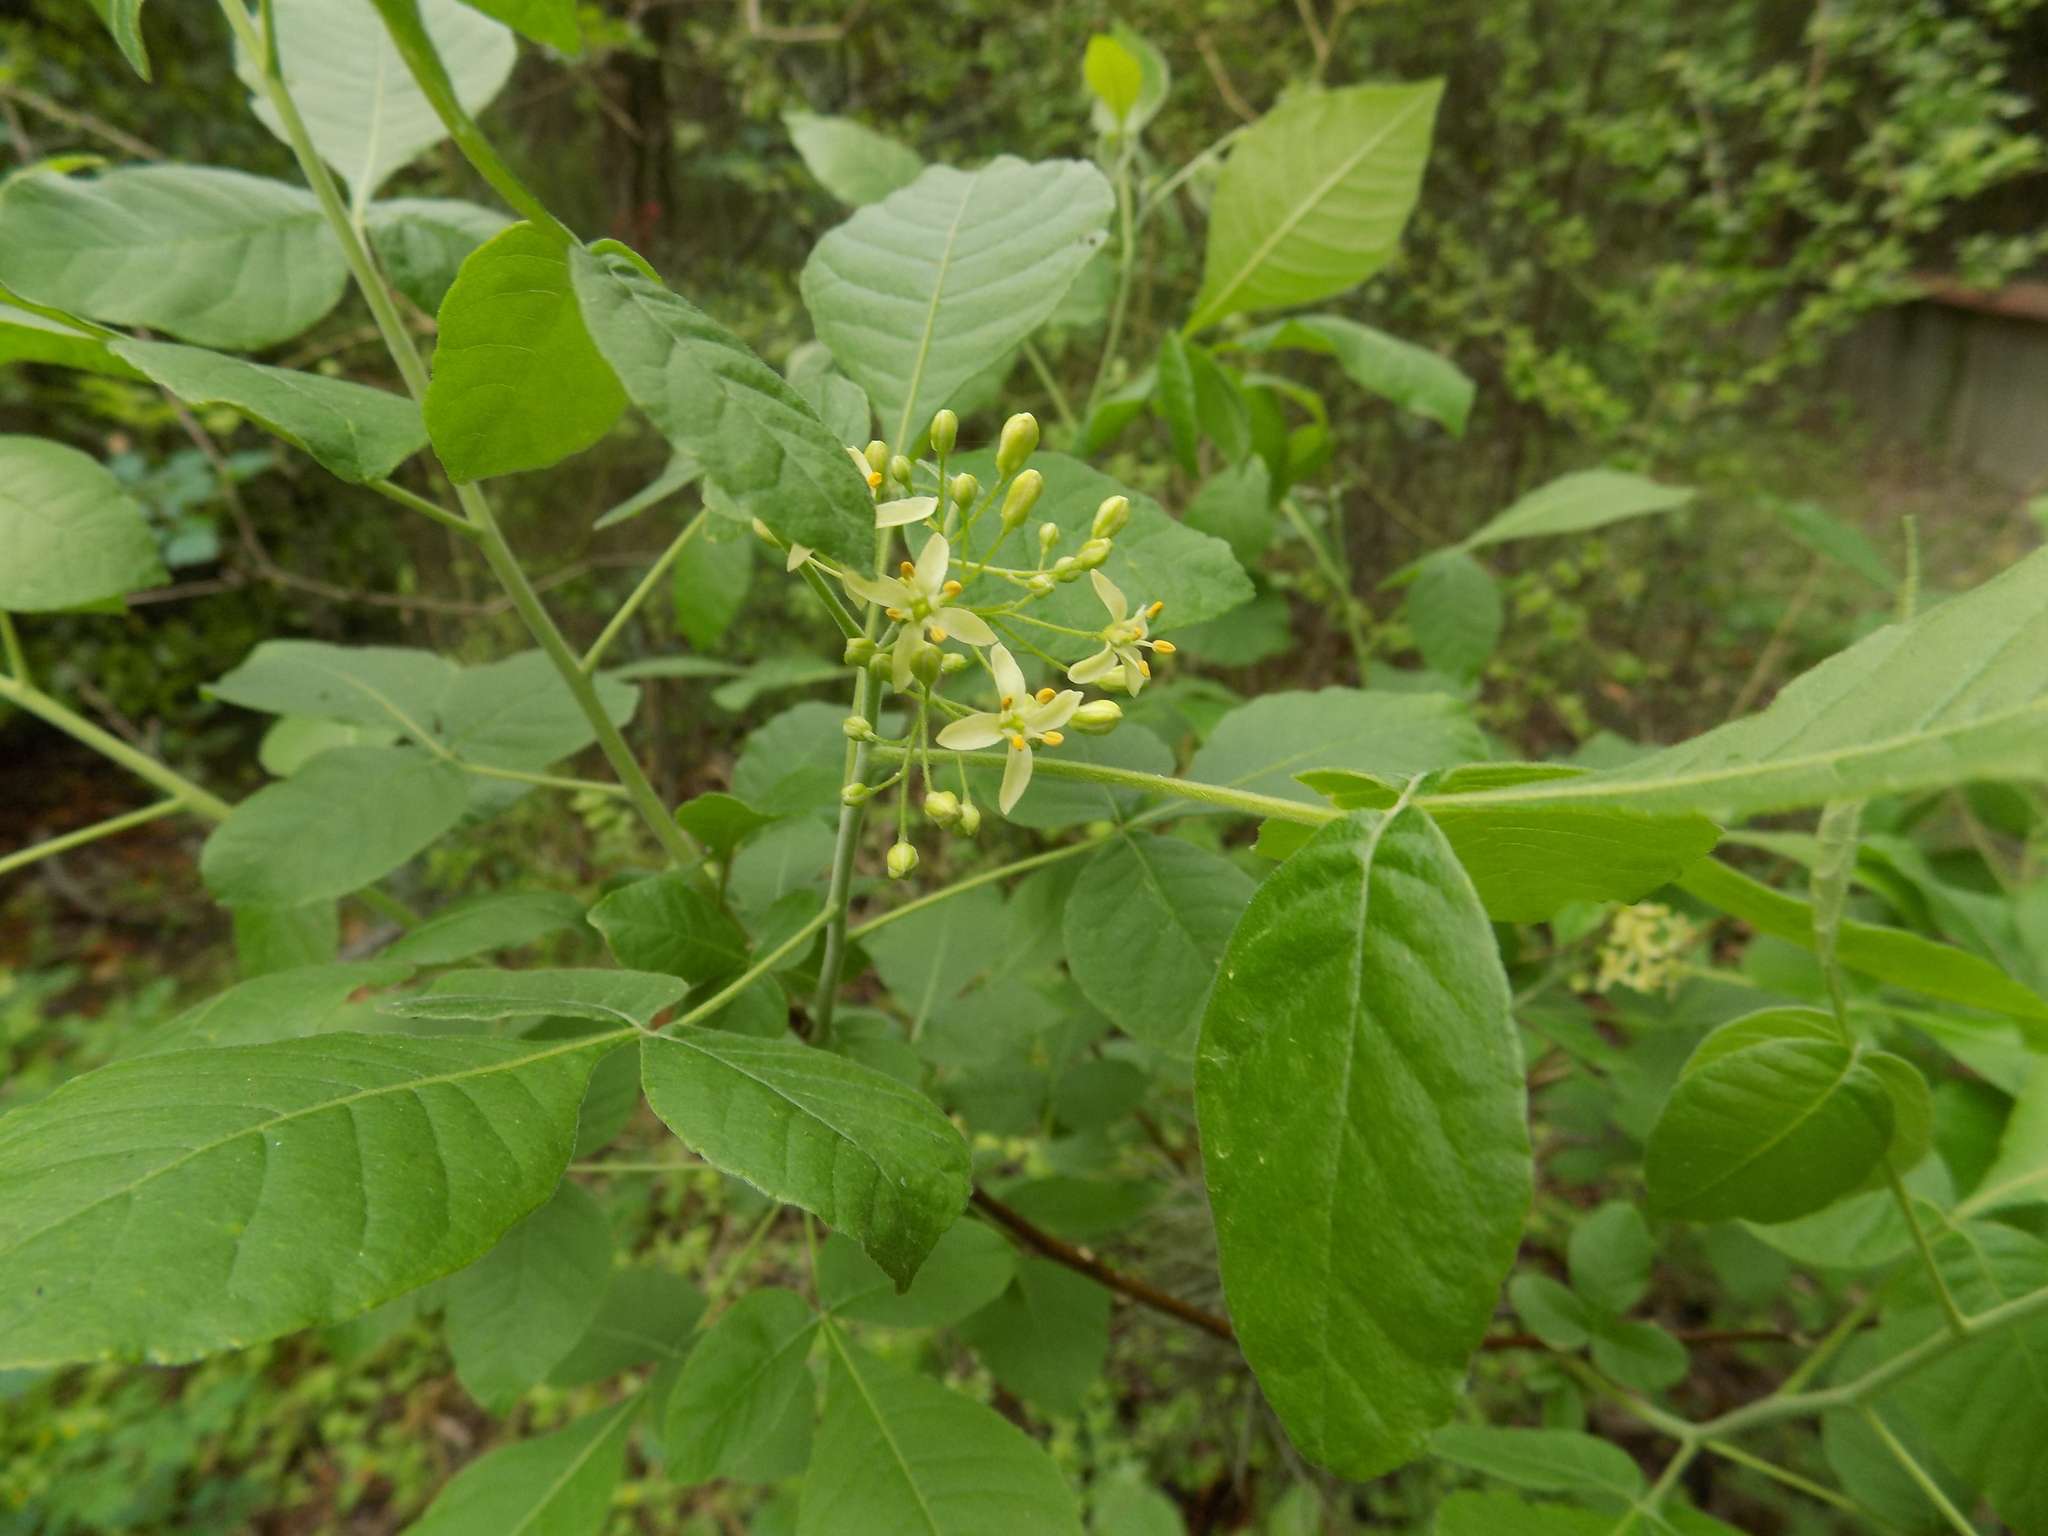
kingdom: Plantae
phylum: Tracheophyta
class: Magnoliopsida
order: Sapindales
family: Rutaceae
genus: Ptelea
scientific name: Ptelea trifoliata
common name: Common hop-tree
